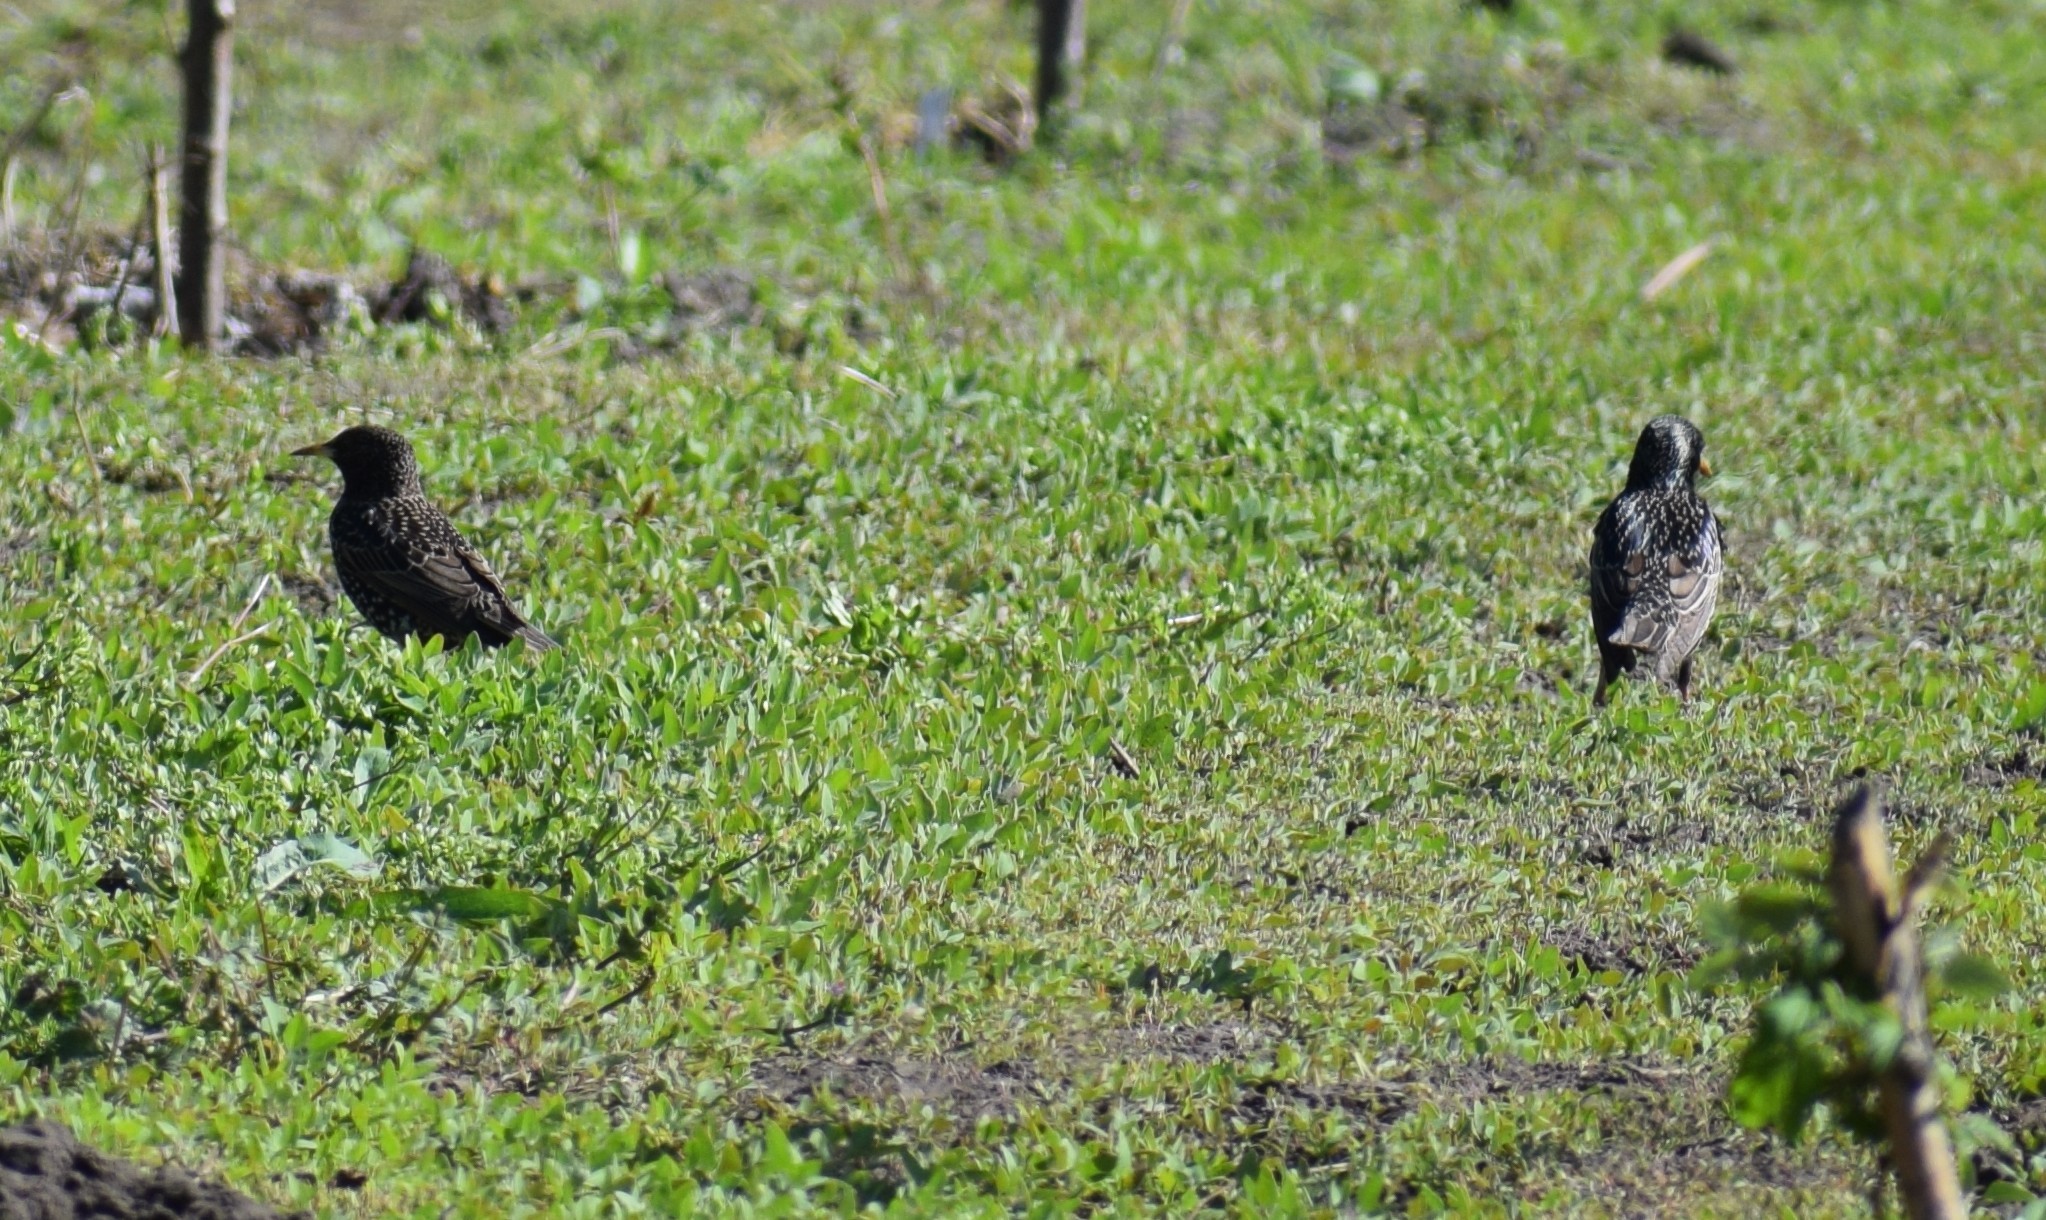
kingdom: Animalia
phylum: Chordata
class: Aves
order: Passeriformes
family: Sturnidae
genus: Sturnus
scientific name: Sturnus vulgaris
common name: Common starling
